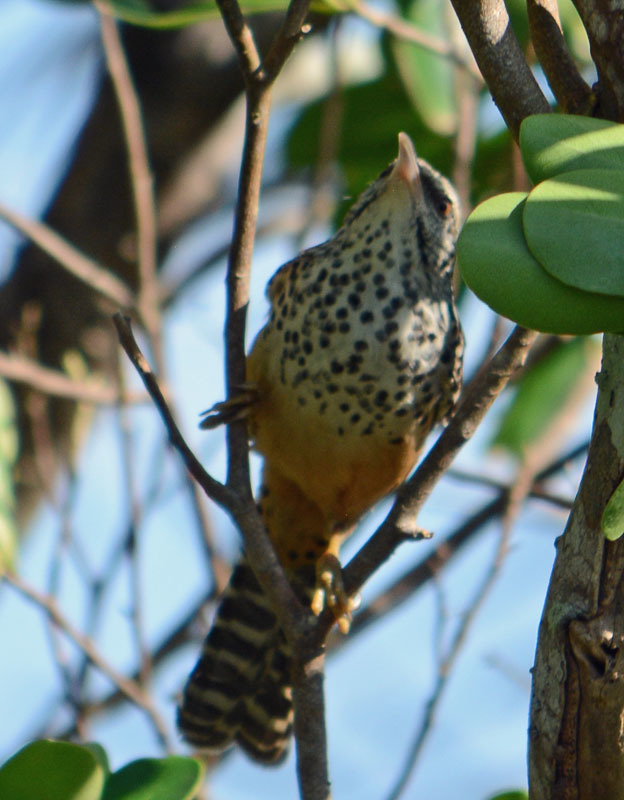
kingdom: Animalia
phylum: Chordata
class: Aves
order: Passeriformes
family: Troglodytidae
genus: Campylorhynchus
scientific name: Campylorhynchus zonatus
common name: Band-backed wren
